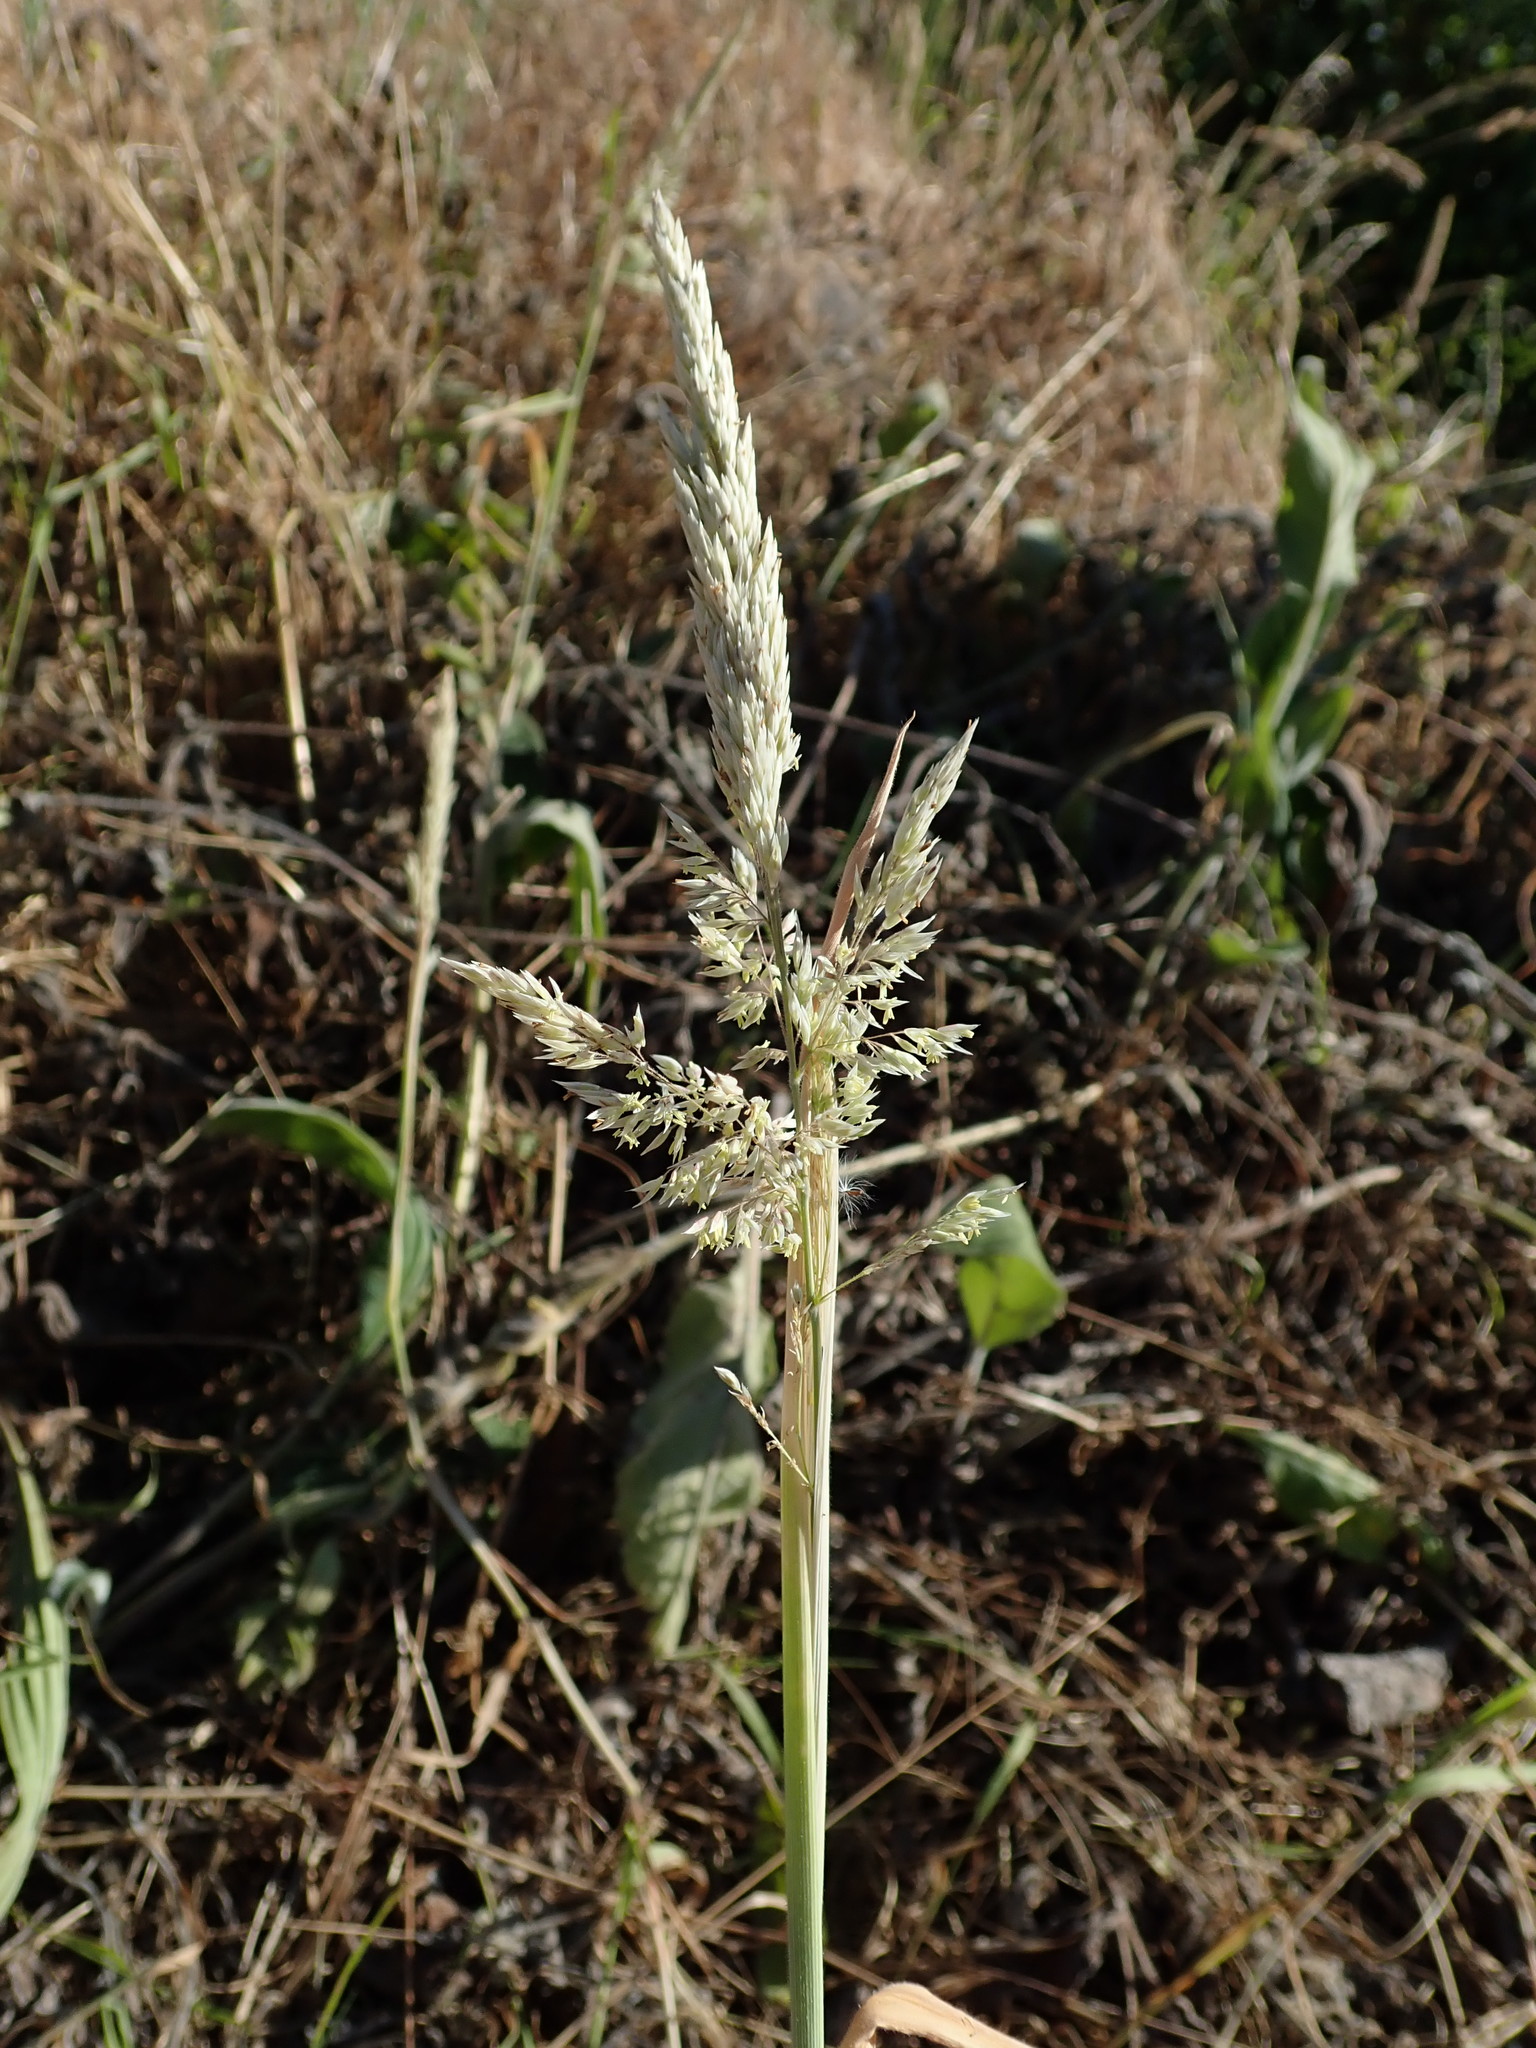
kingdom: Plantae
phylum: Tracheophyta
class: Liliopsida
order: Poales
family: Poaceae
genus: Holcus
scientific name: Holcus lanatus
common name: Yorkshire-fog
